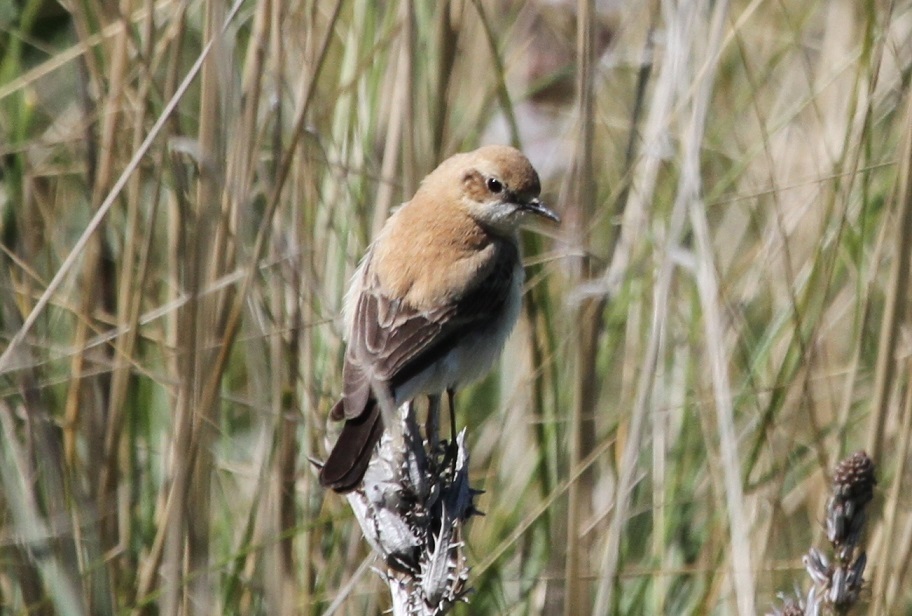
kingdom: Animalia
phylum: Chordata
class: Aves
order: Passeriformes
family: Muscicapidae
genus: Oenanthe
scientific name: Oenanthe hispanica
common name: Black-eared wheatear
